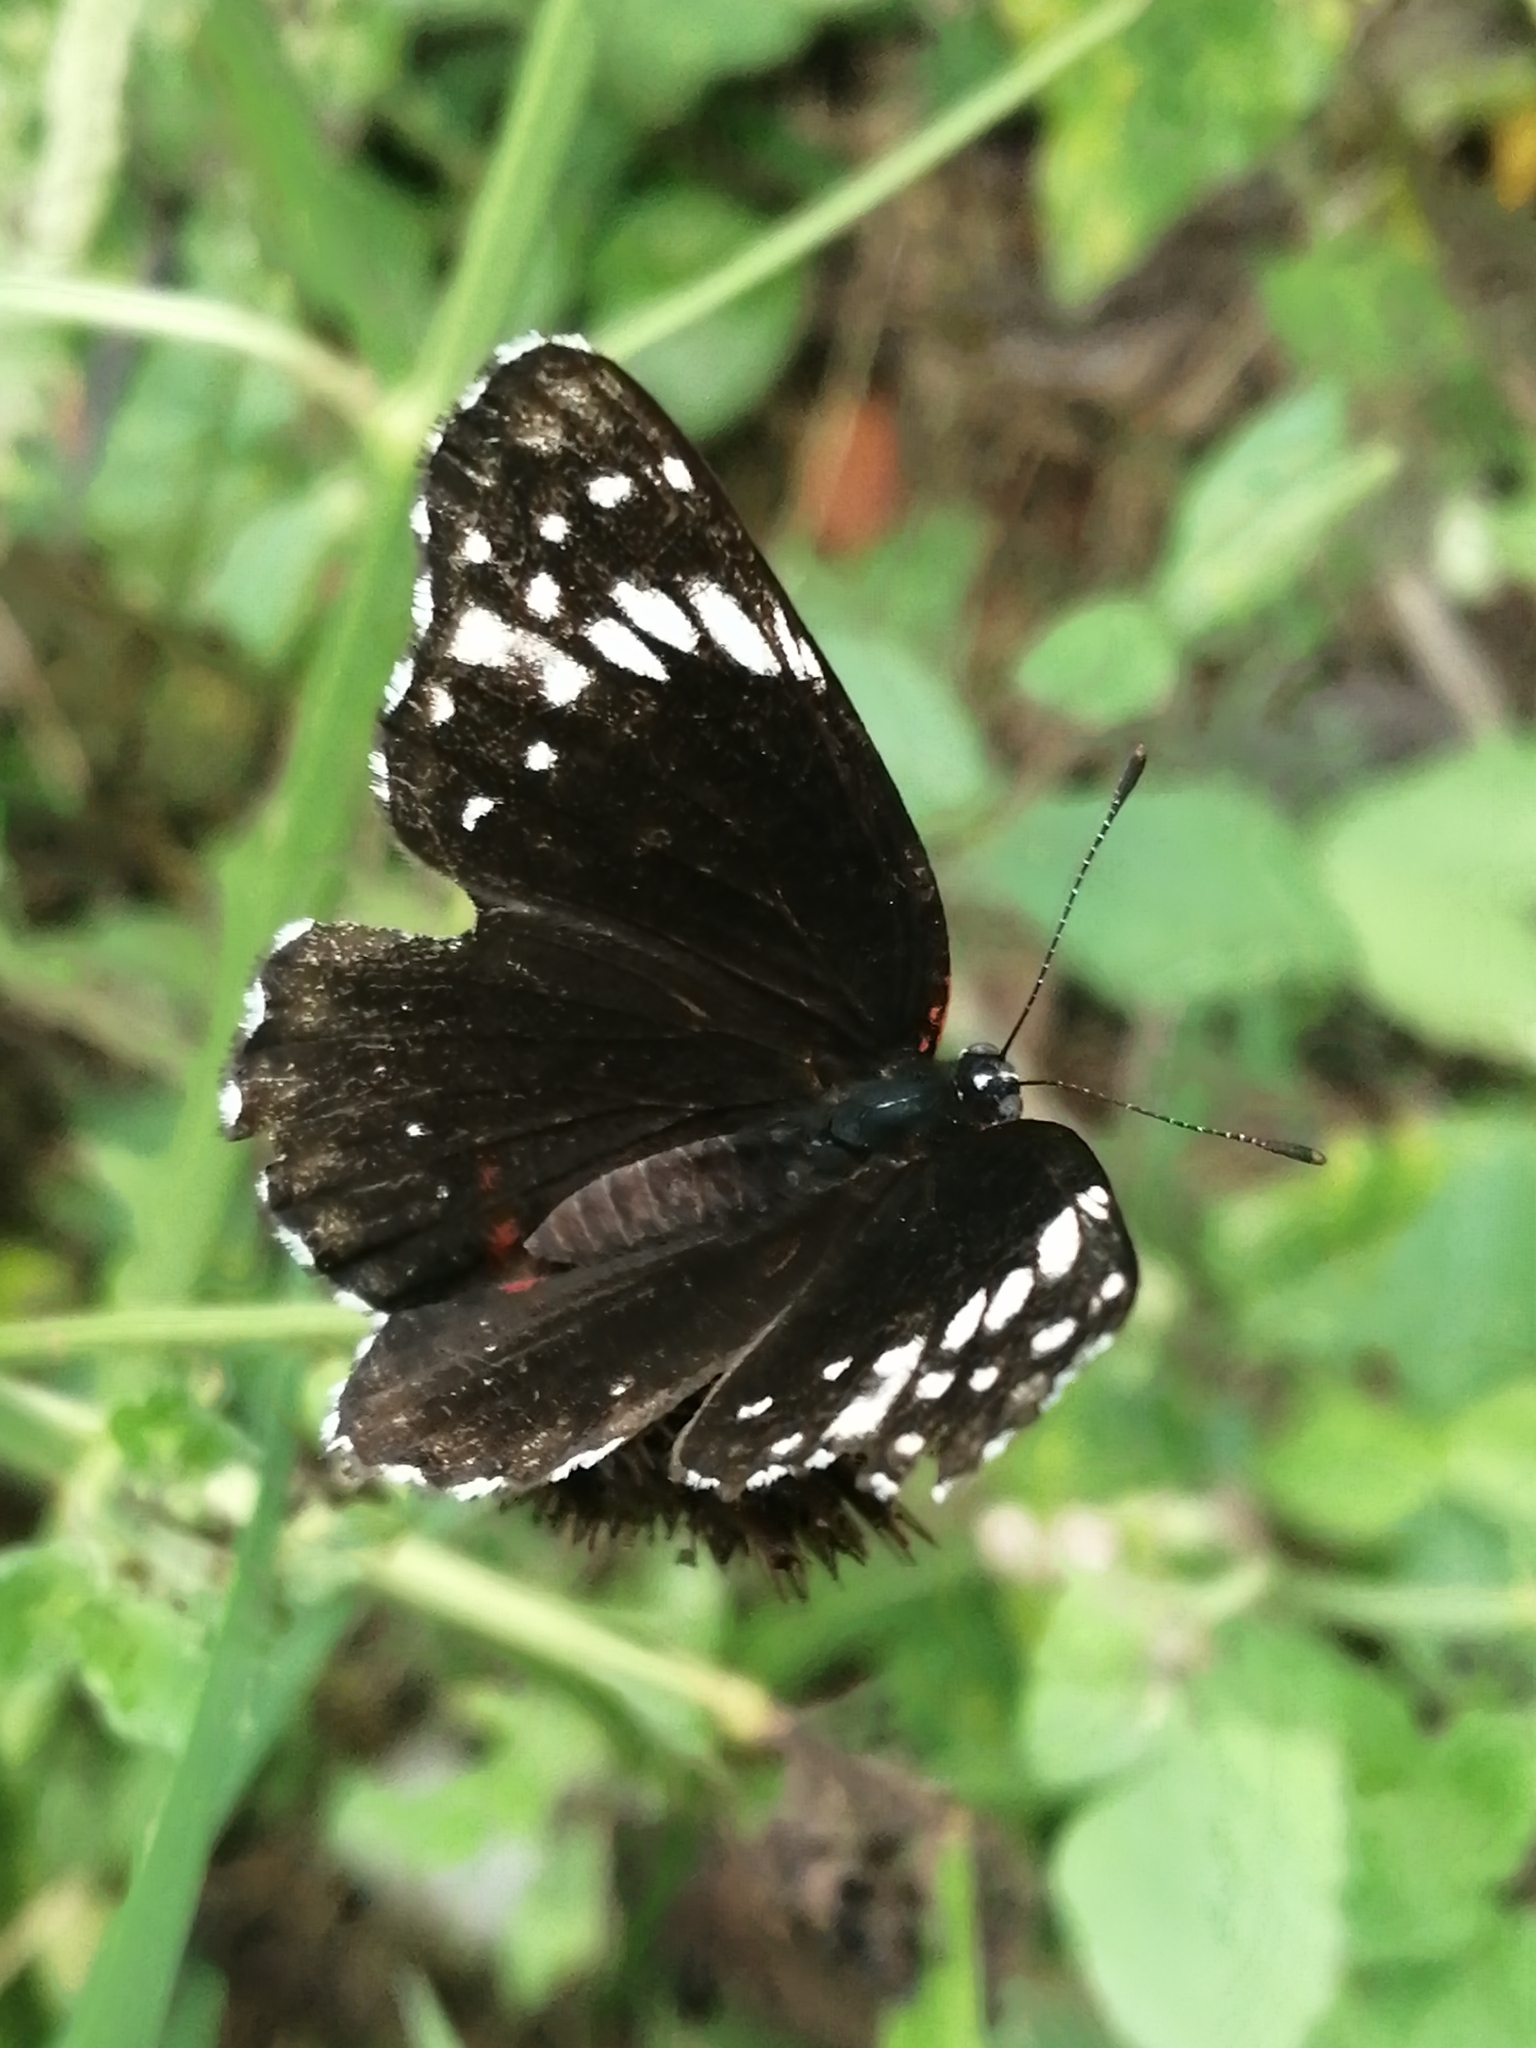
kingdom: Animalia
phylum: Arthropoda
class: Insecta
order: Lepidoptera
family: Nymphalidae
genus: Chlosyne
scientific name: Chlosyne hippodrome
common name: Simple patch
